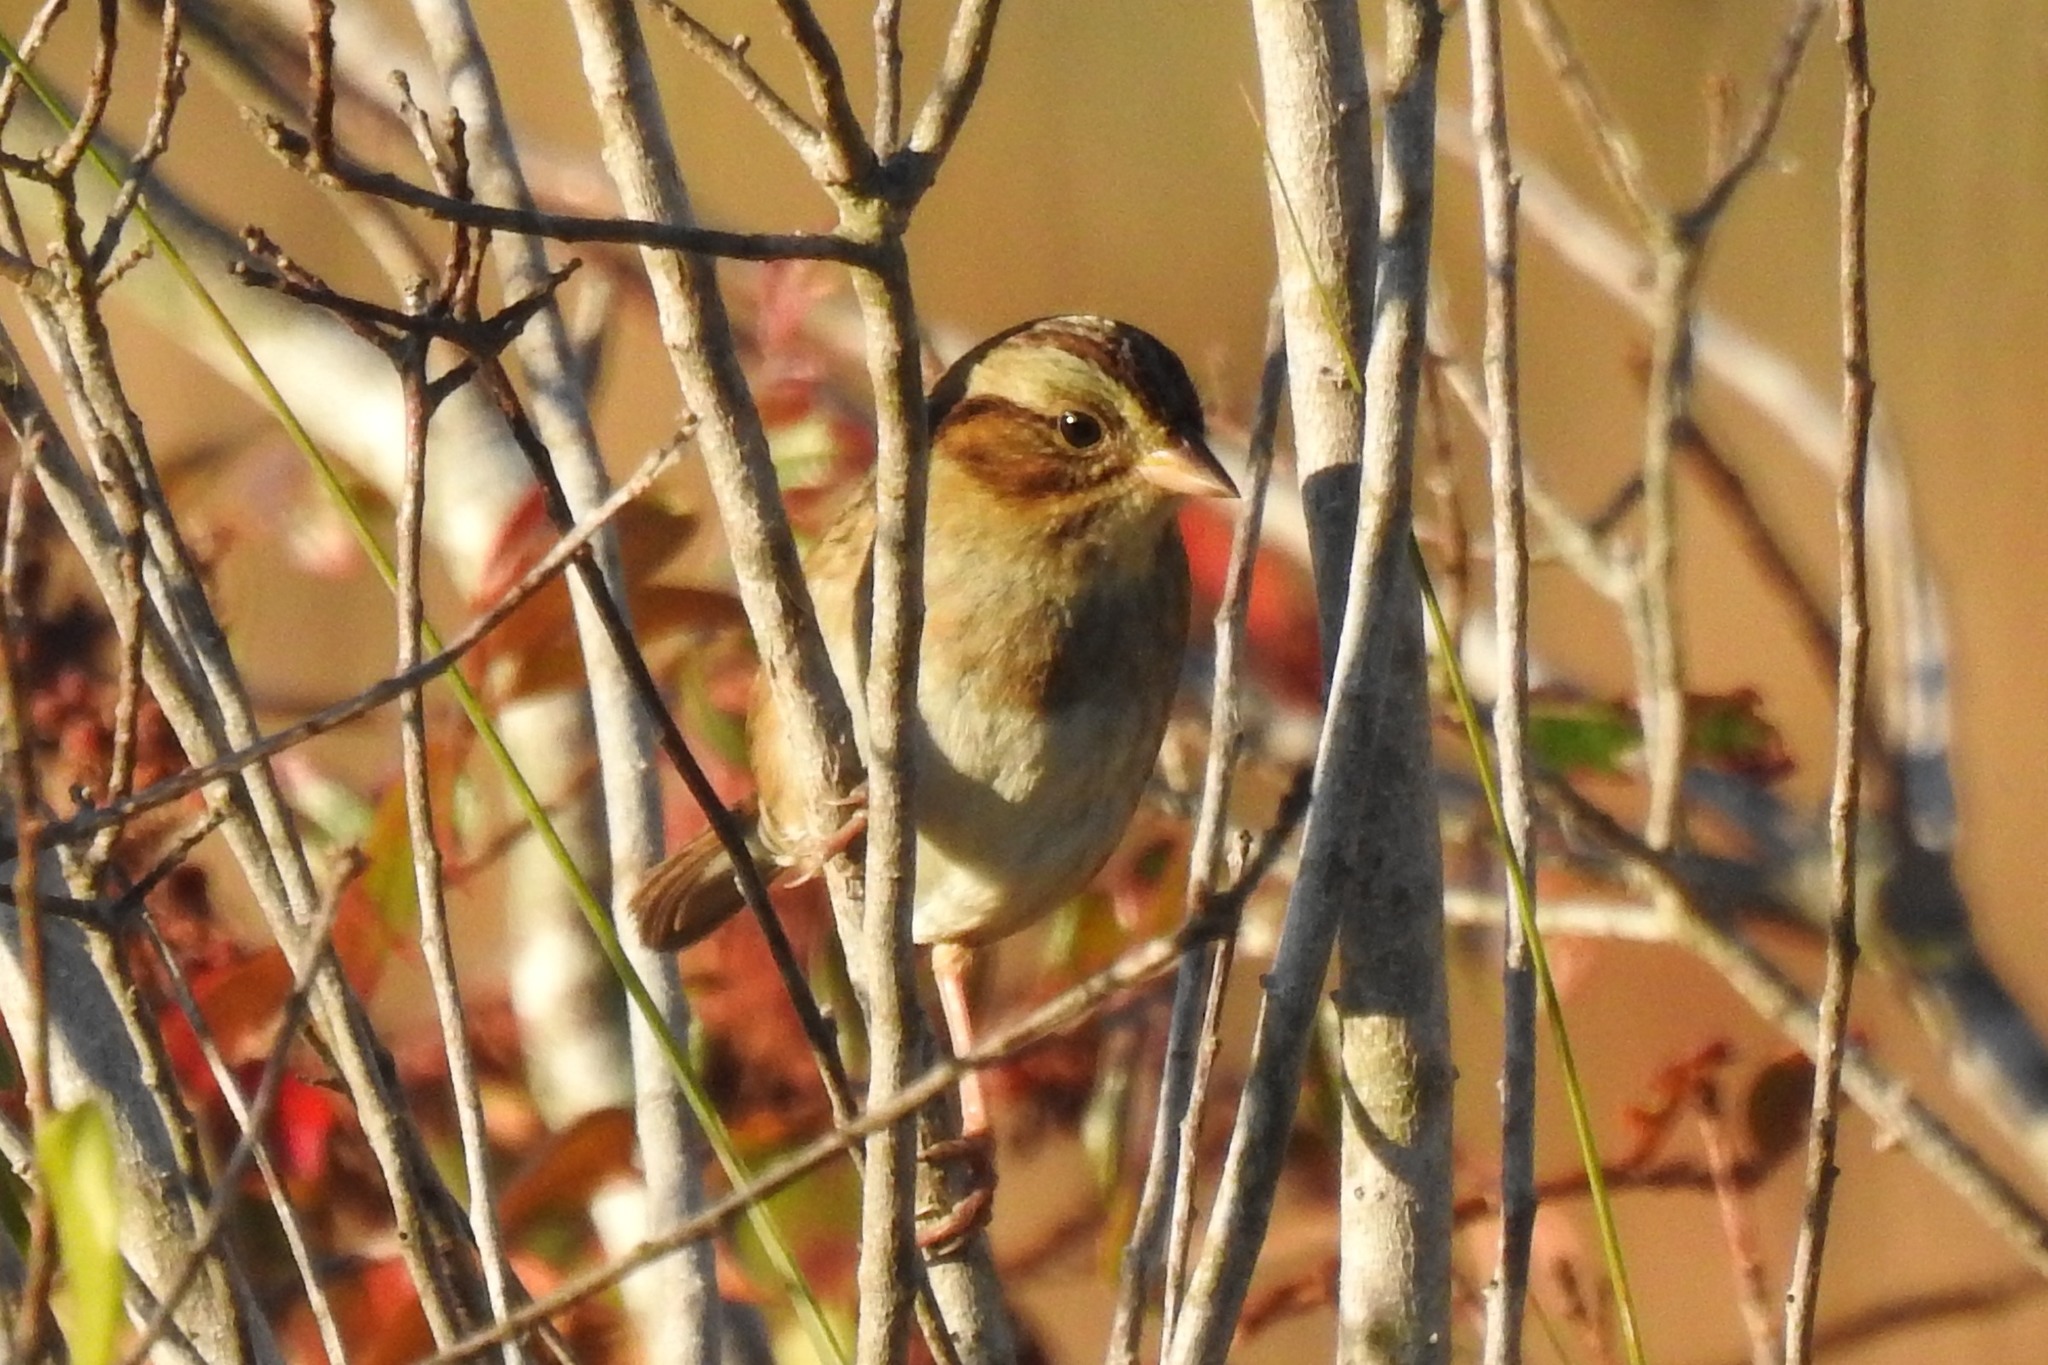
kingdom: Animalia
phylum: Chordata
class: Aves
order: Passeriformes
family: Passerellidae
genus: Melospiza
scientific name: Melospiza georgiana
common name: Swamp sparrow
